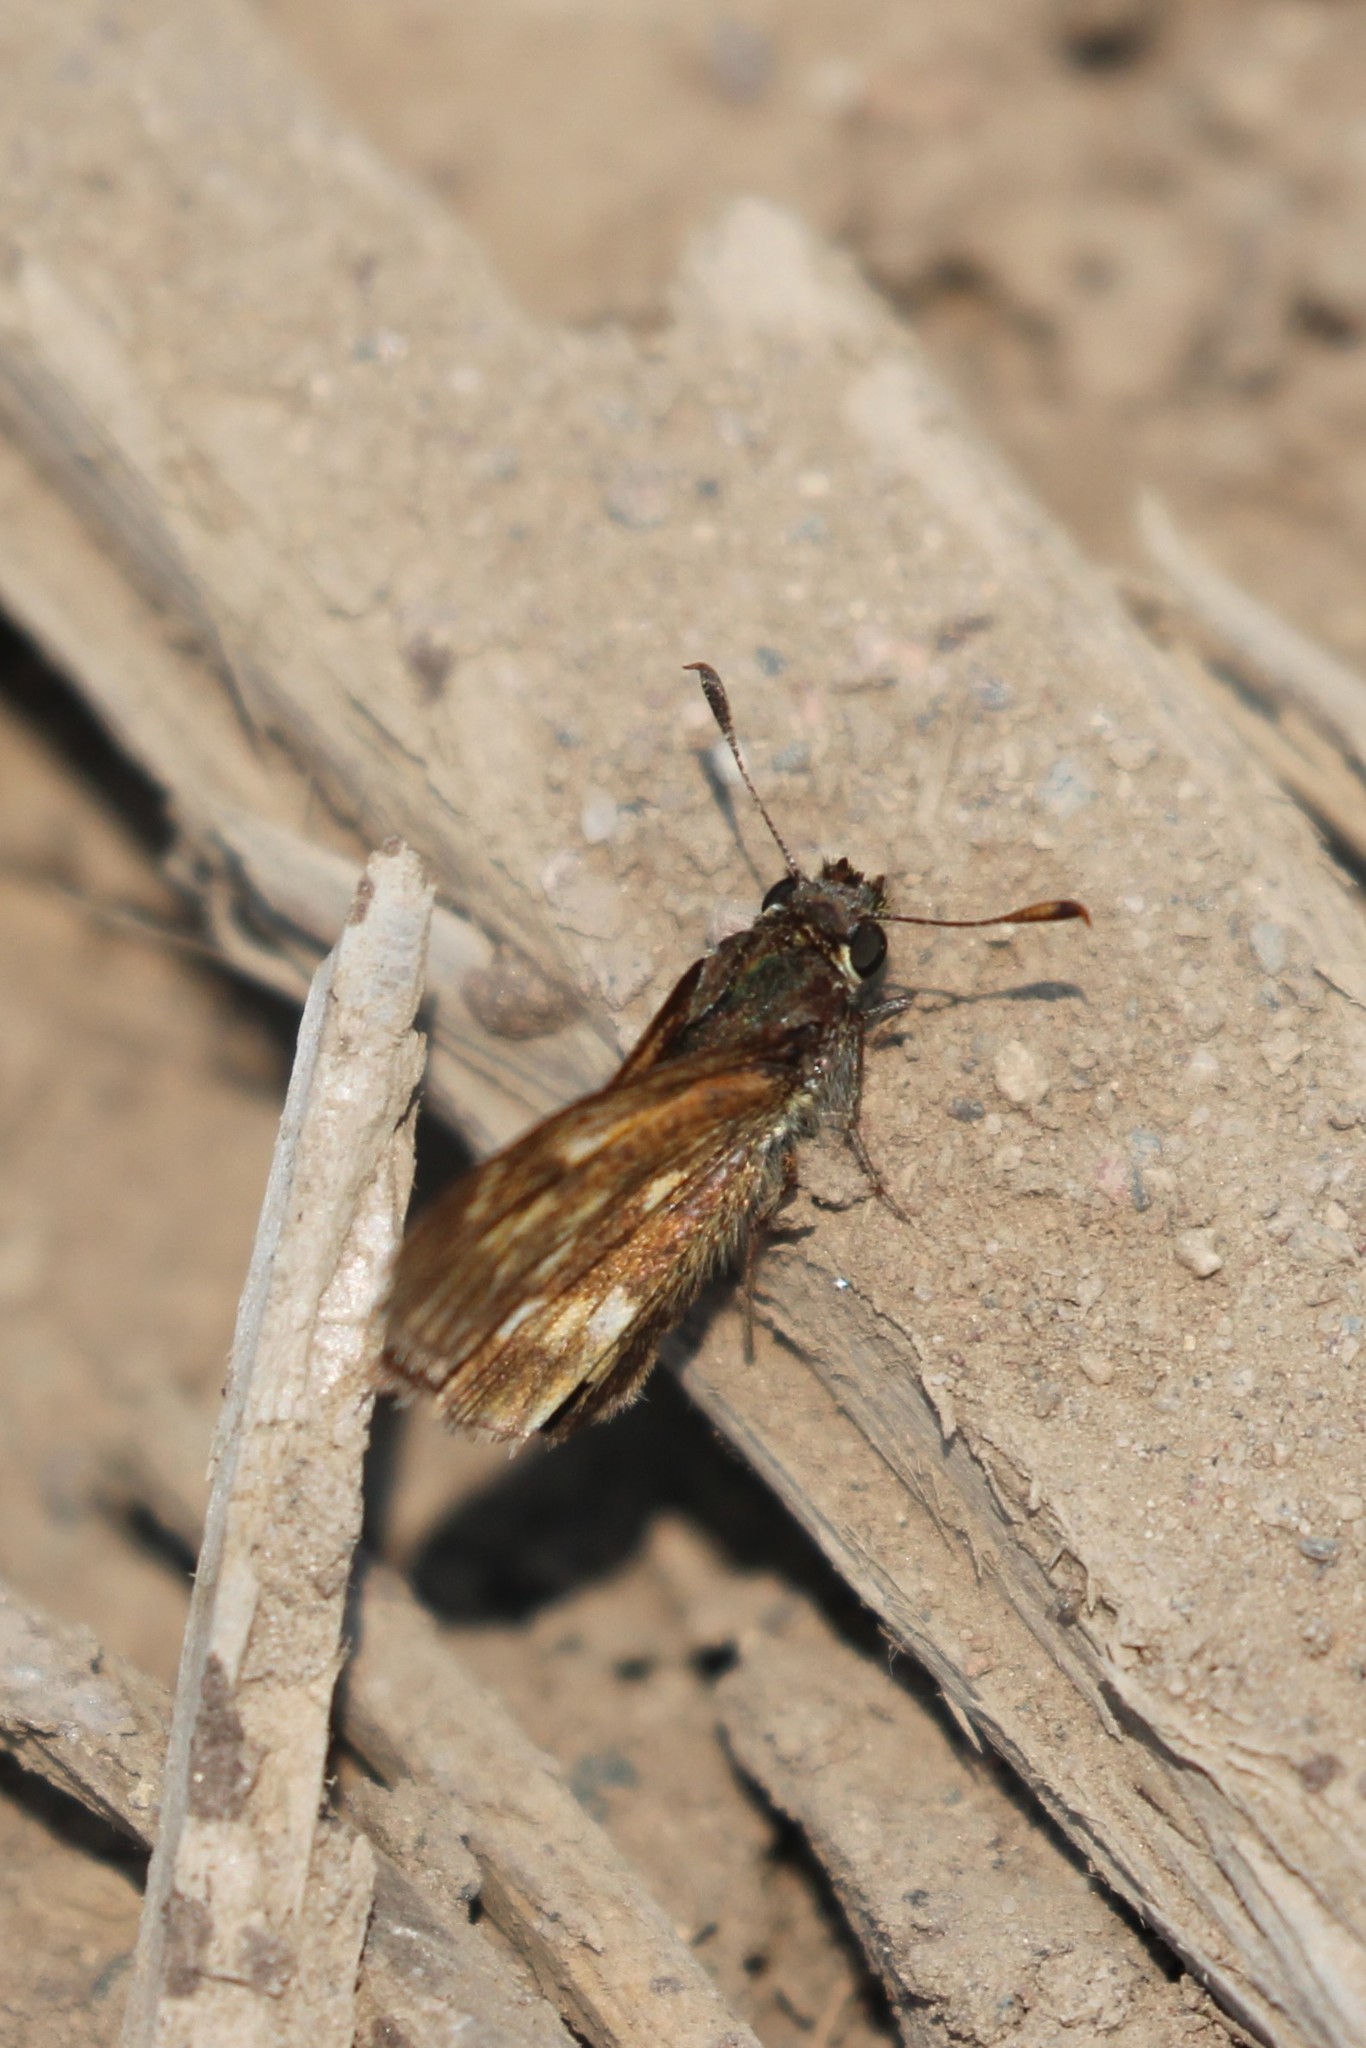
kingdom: Animalia
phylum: Arthropoda
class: Insecta
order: Lepidoptera
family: Hesperiidae
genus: Polites
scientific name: Polites mystic
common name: Long dash
